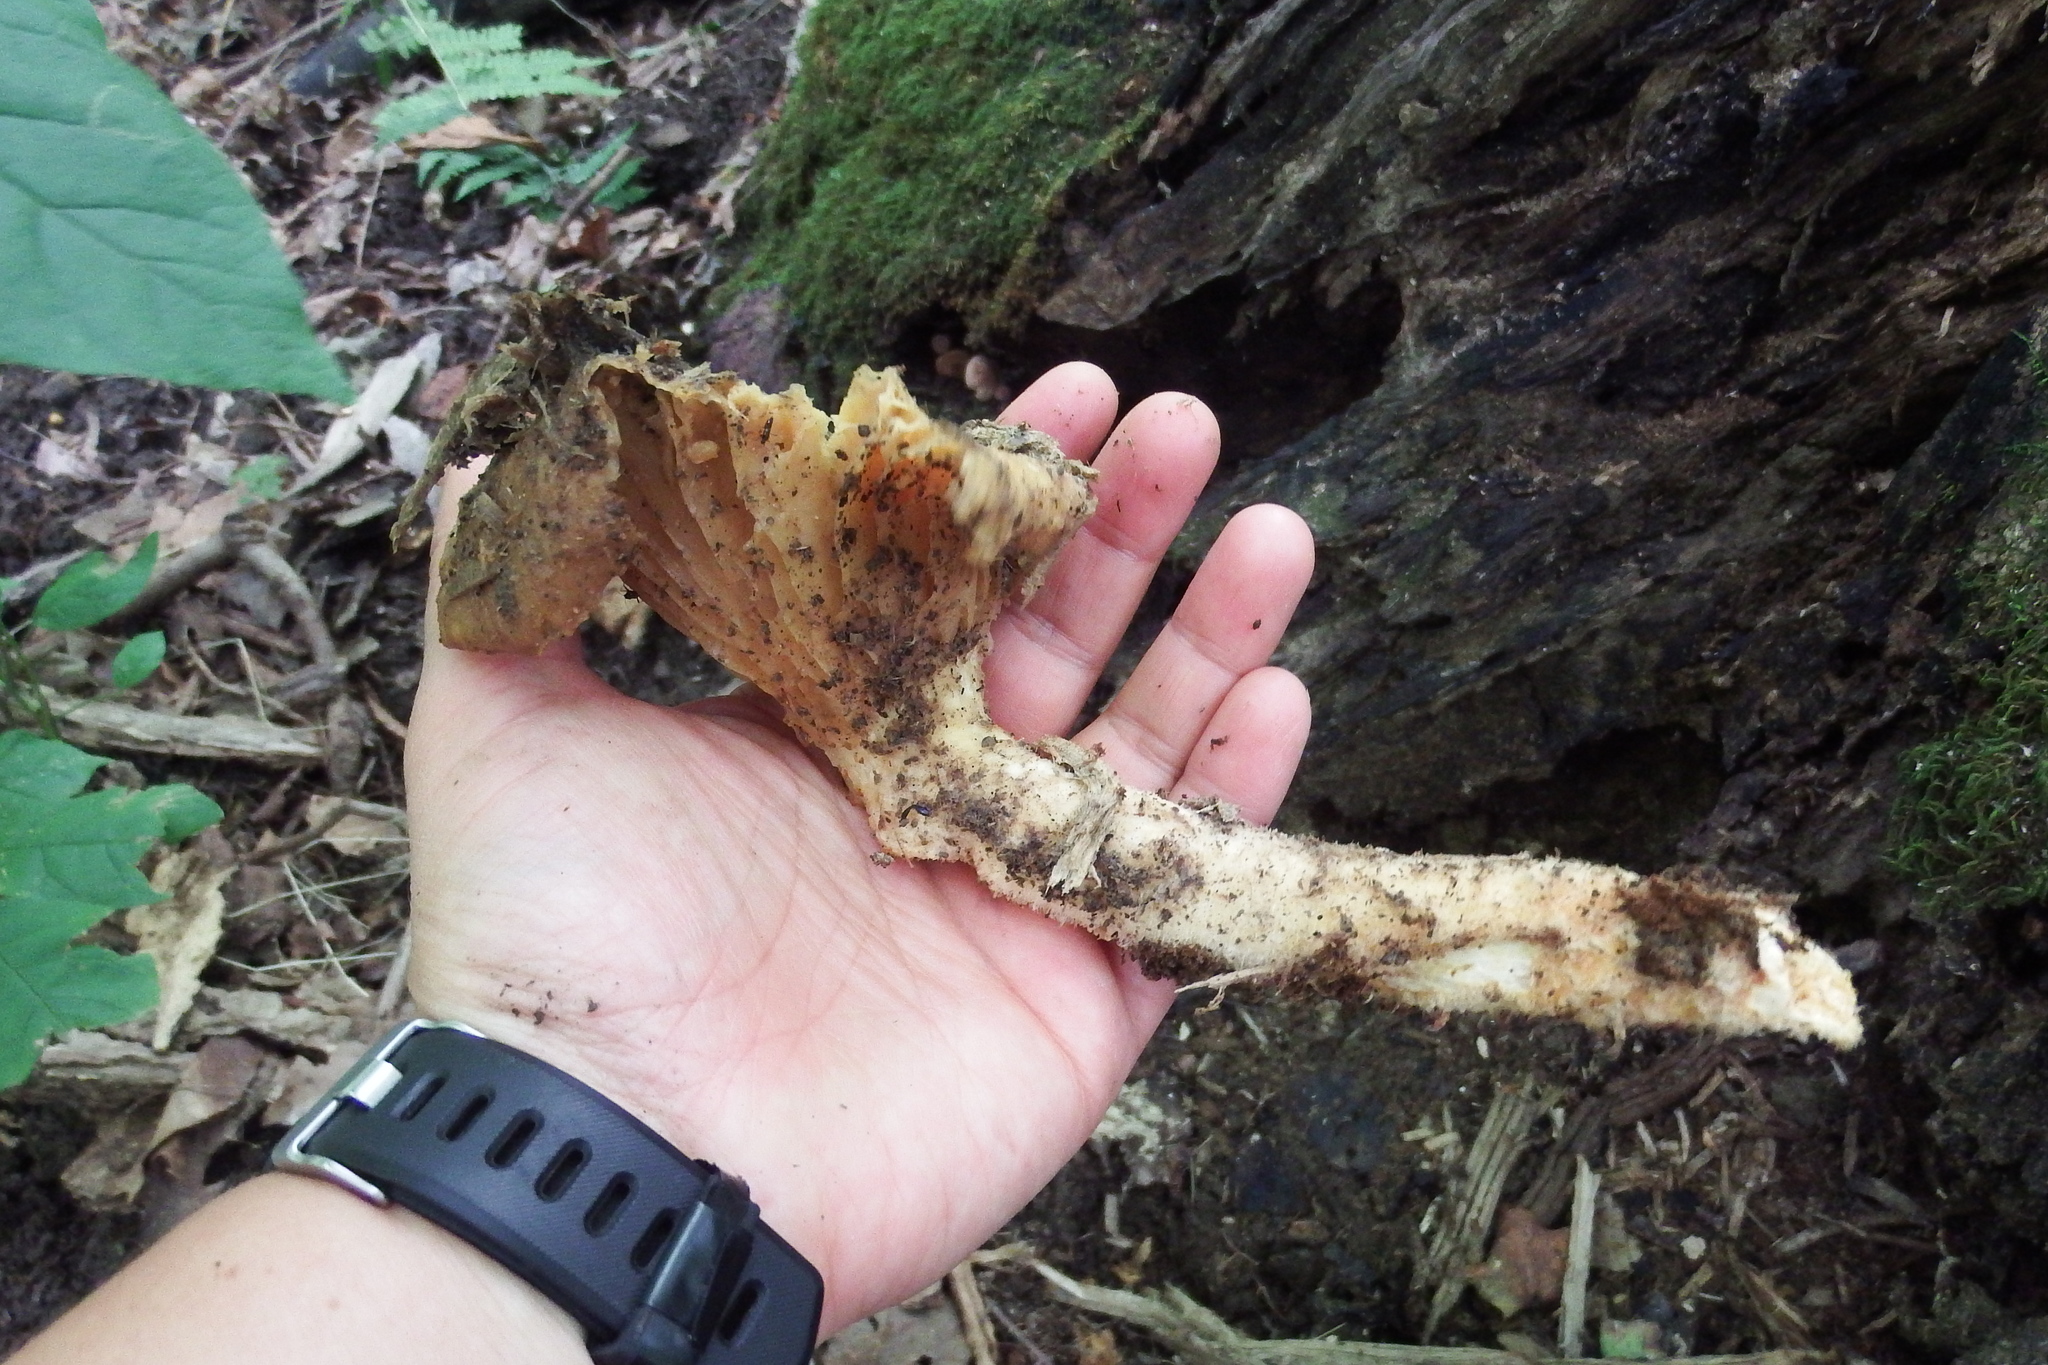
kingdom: Fungi
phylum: Basidiomycota
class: Agaricomycetes
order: Polyporales
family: Polyporaceae
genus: Lentinus
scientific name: Lentinus levis
